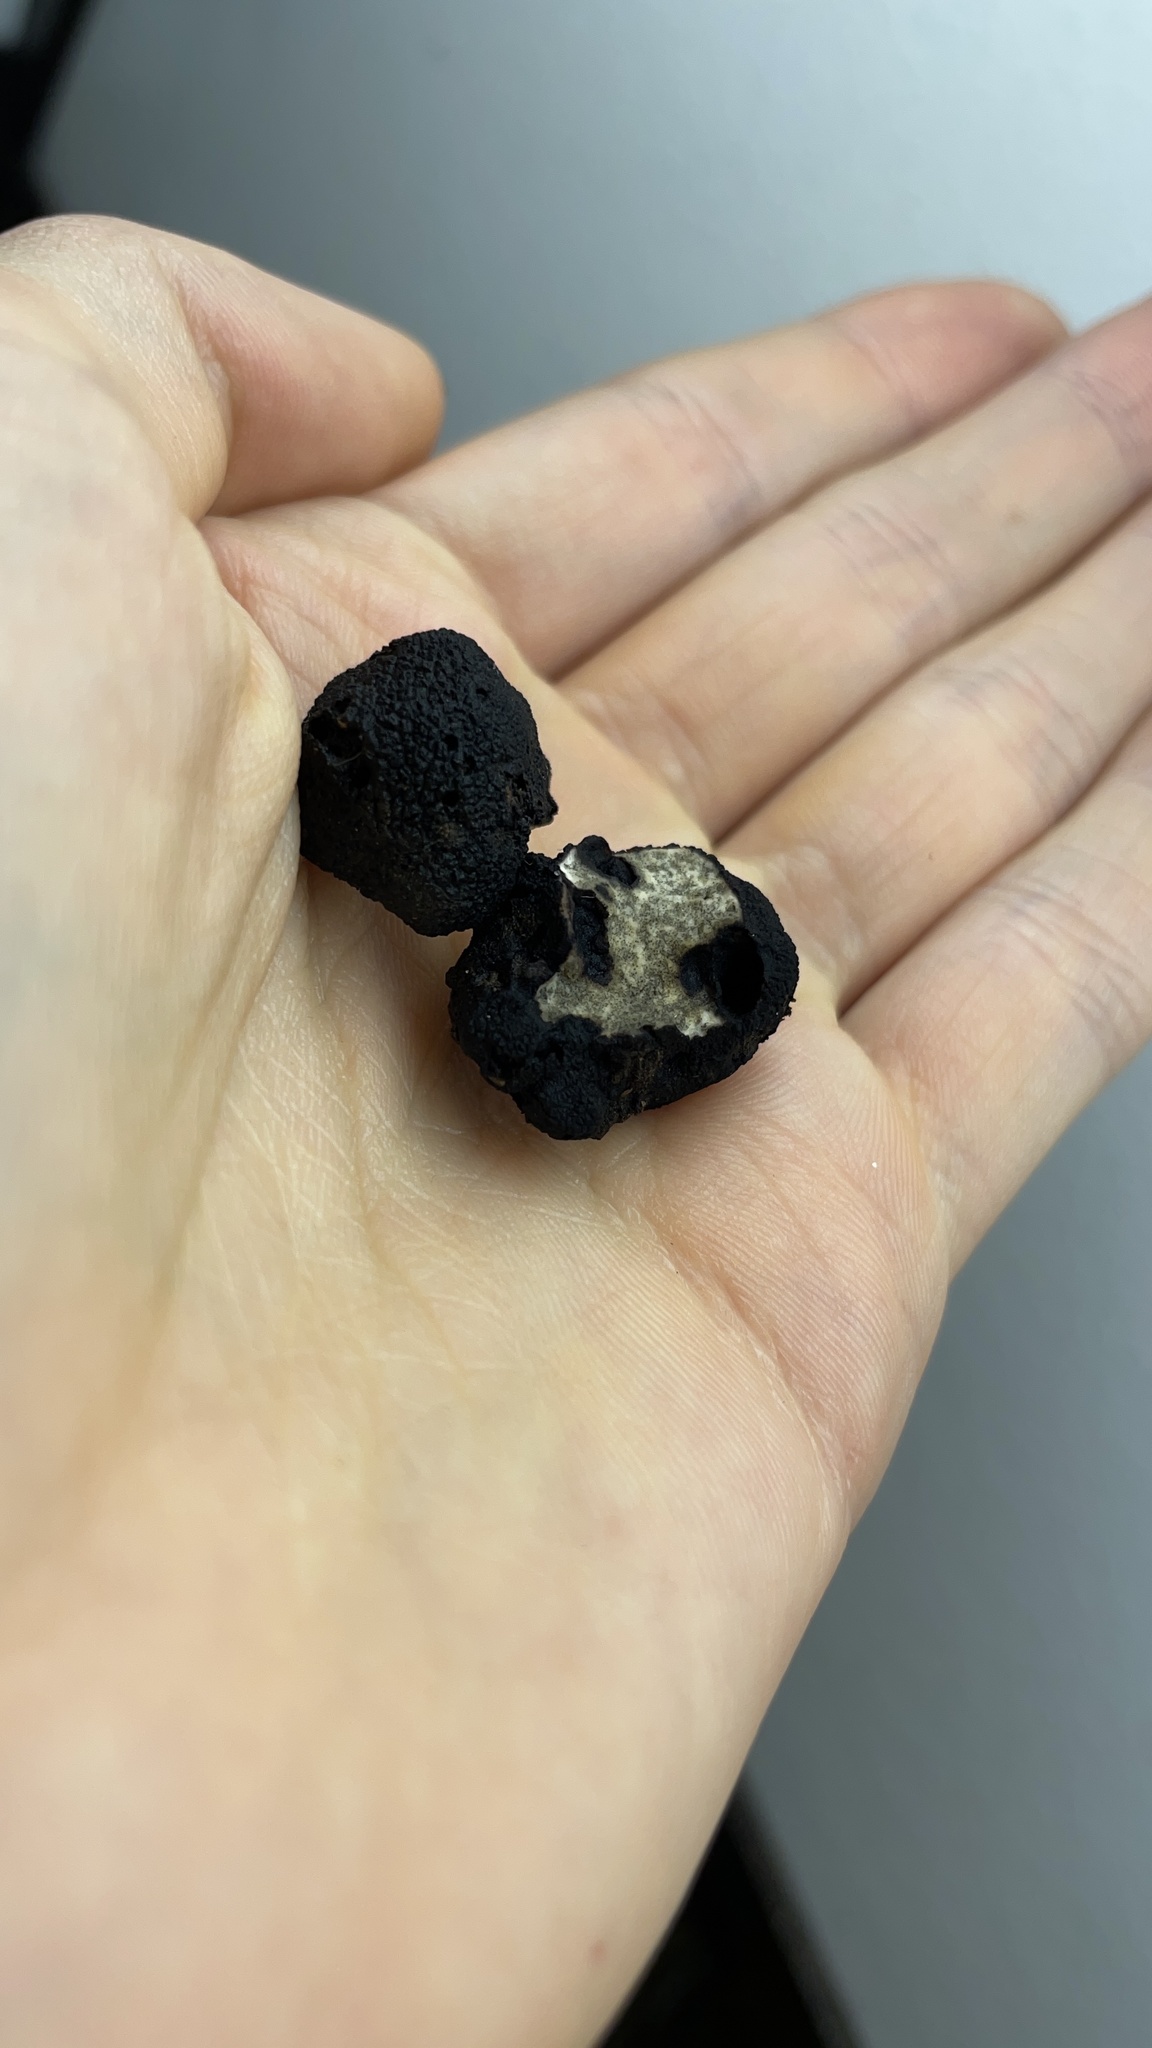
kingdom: Fungi
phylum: Ascomycota
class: Pezizomycetes
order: Pezizales
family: Morchellaceae
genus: Leucangium
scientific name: Leucangium carthusianum
